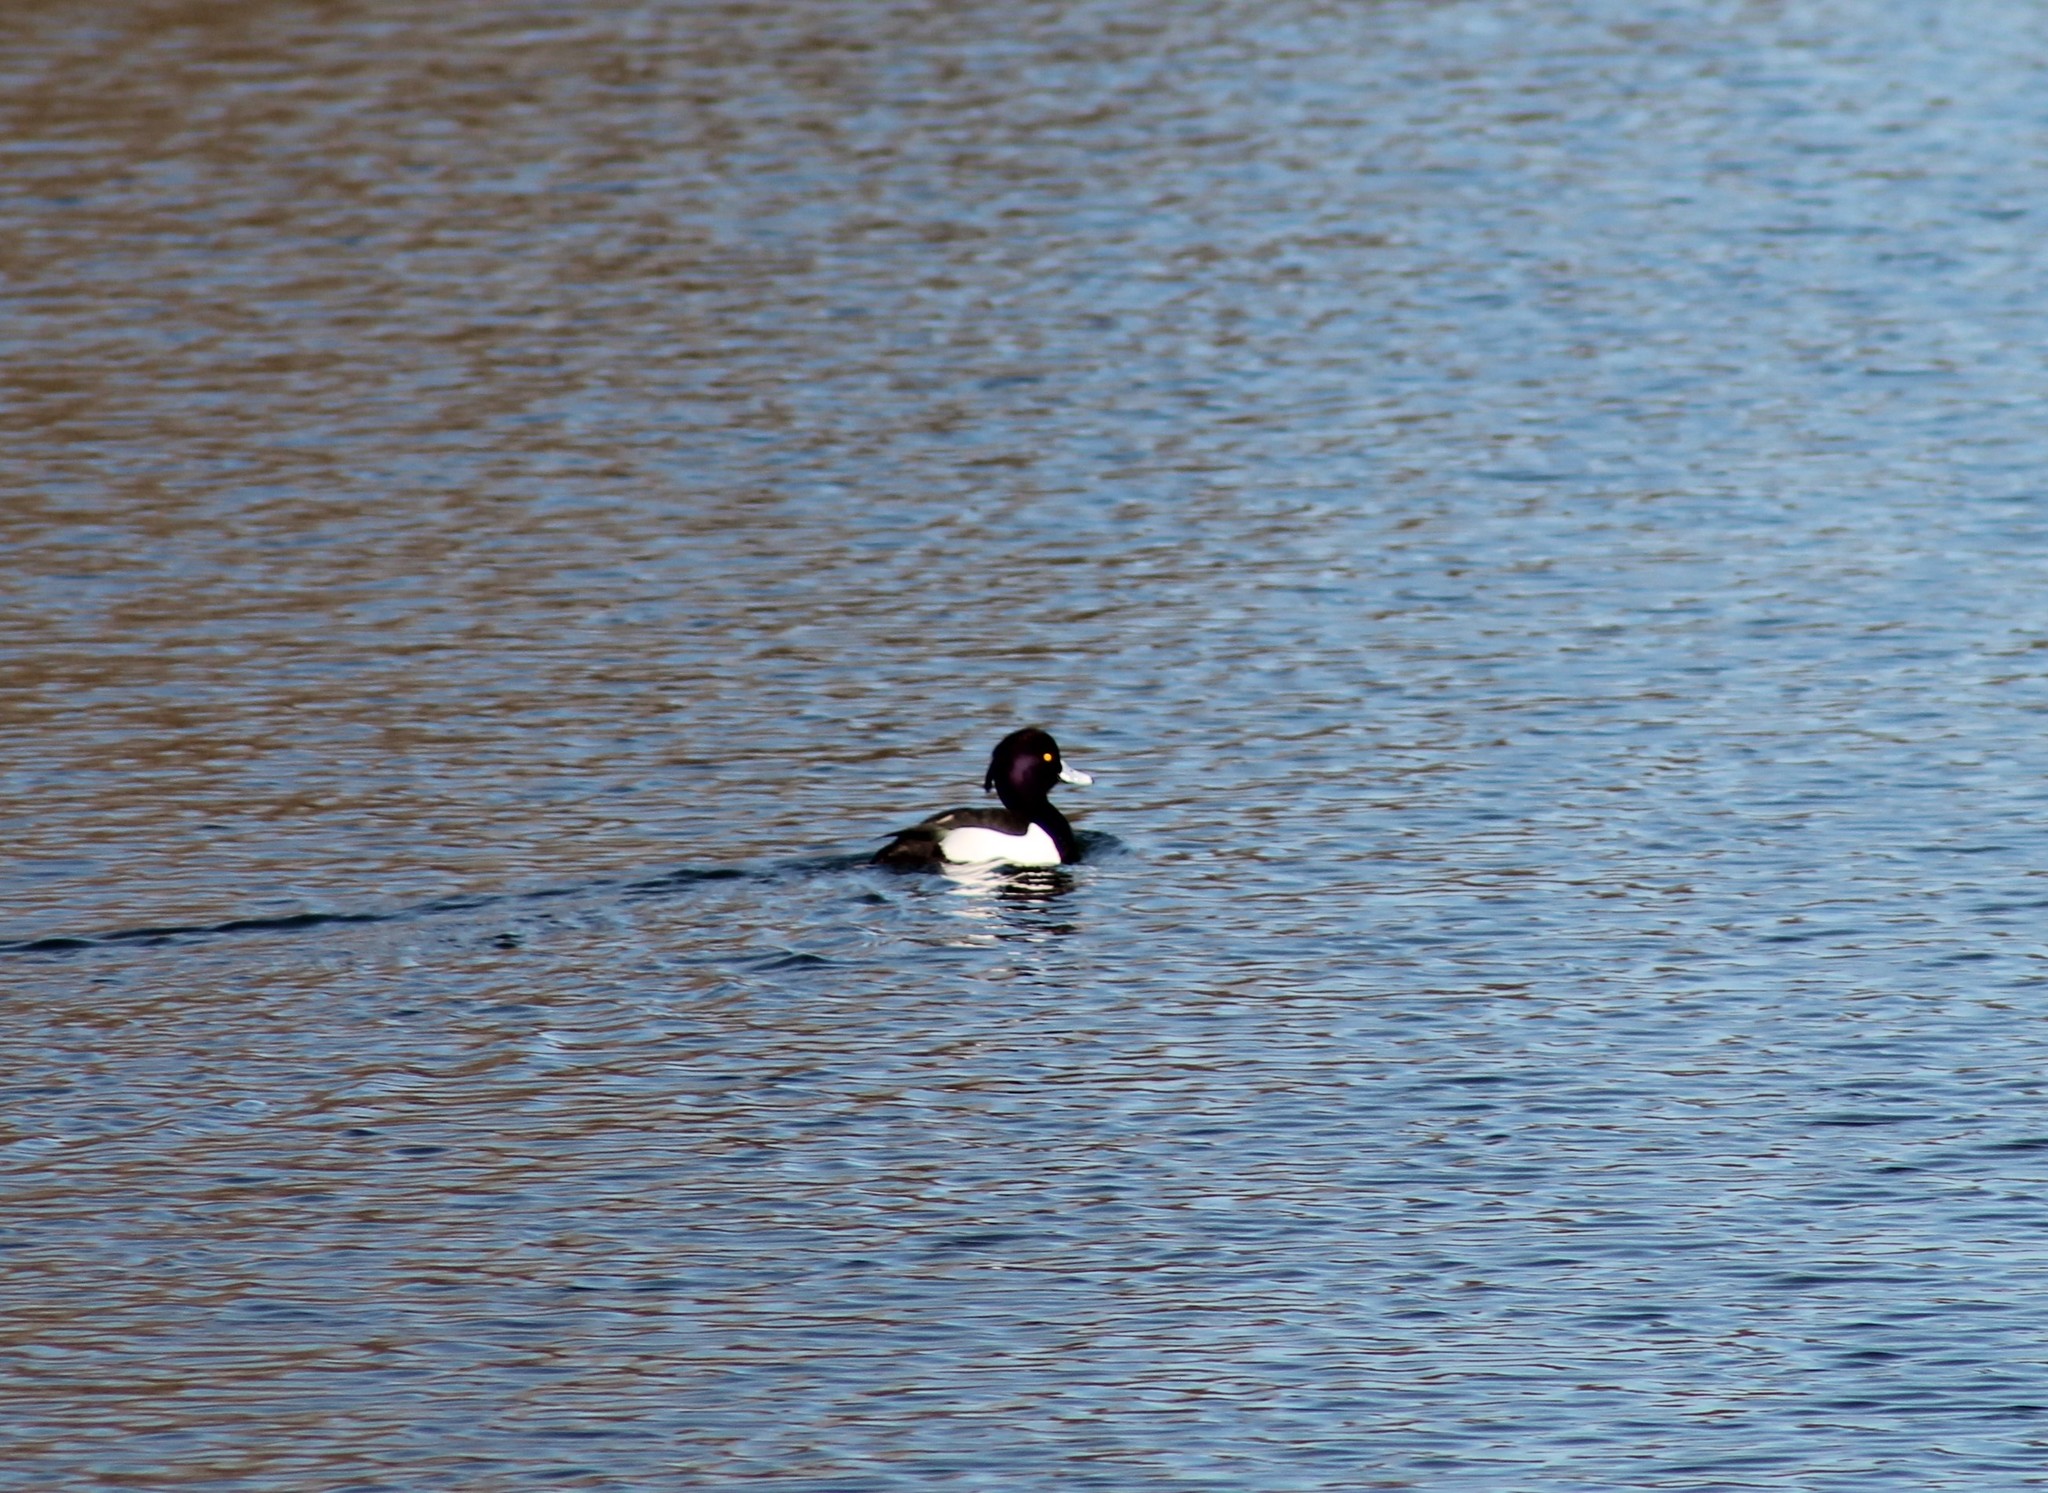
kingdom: Animalia
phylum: Chordata
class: Aves
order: Anseriformes
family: Anatidae
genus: Aythya
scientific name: Aythya fuligula
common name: Tufted duck
